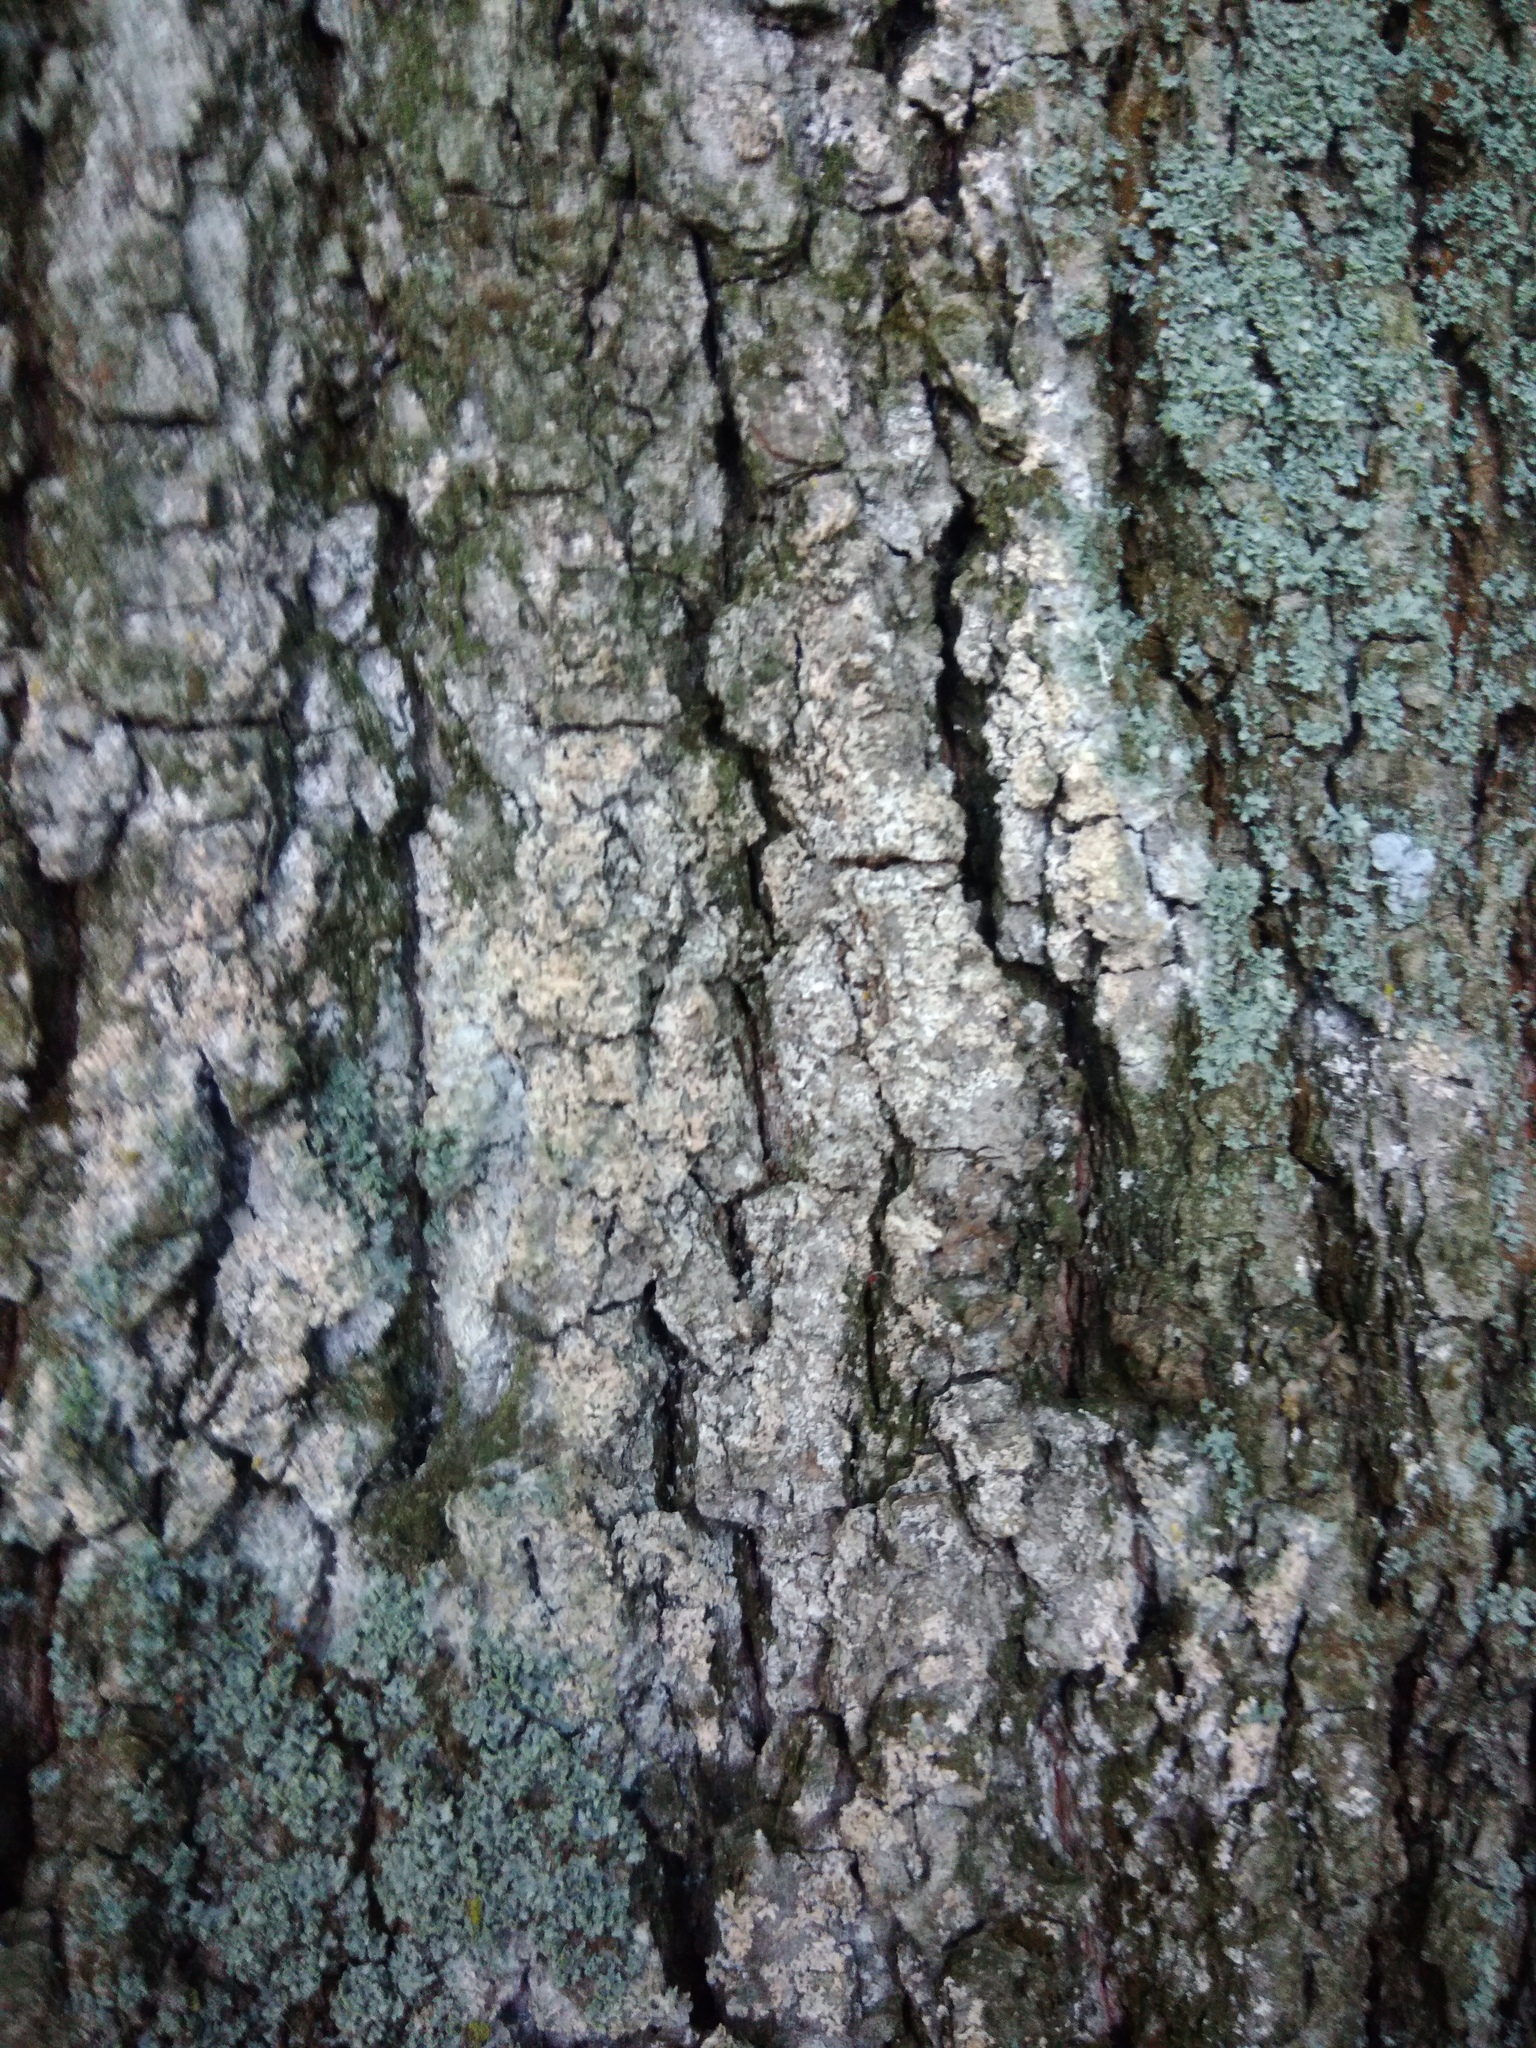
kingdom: Fungi
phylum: Basidiomycota
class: Agaricomycetes
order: Atheliales
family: Atheliaceae
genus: Athelia
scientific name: Athelia arachnoidea
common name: Candelabra duster
